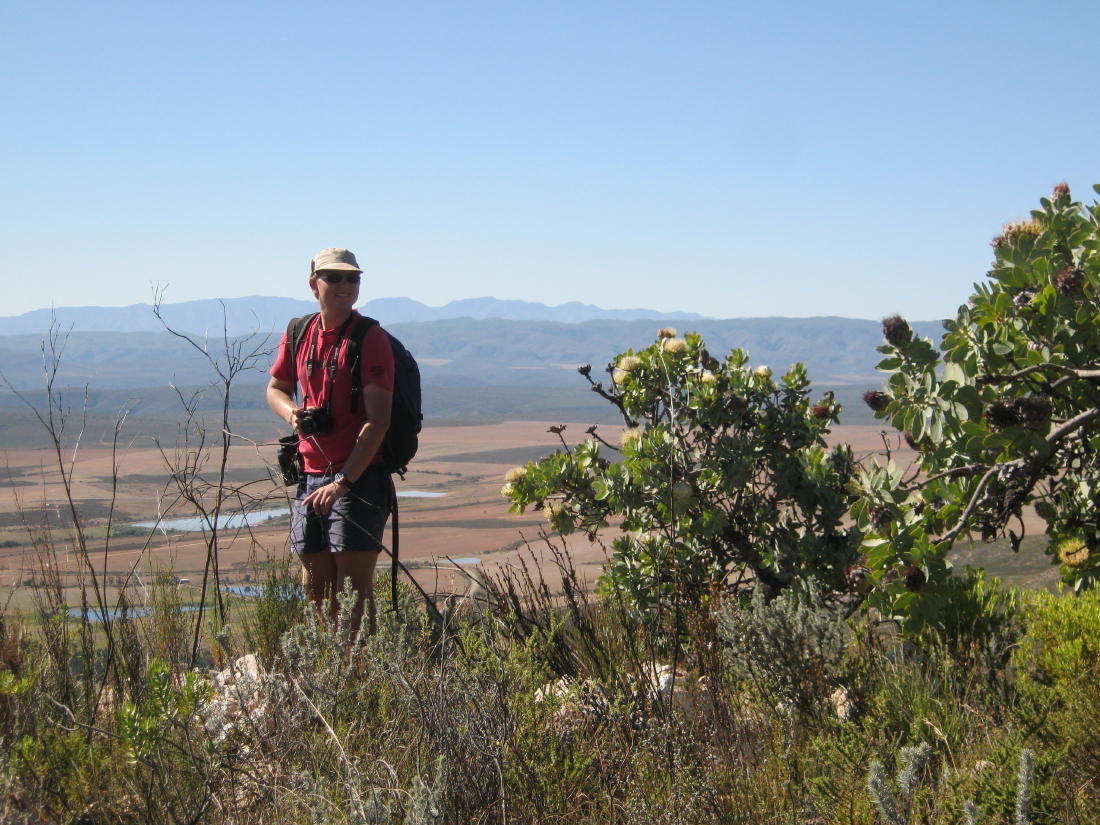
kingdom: Plantae
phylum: Tracheophyta
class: Magnoliopsida
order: Proteales
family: Proteaceae
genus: Protea
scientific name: Protea nitida
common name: Tree protea
